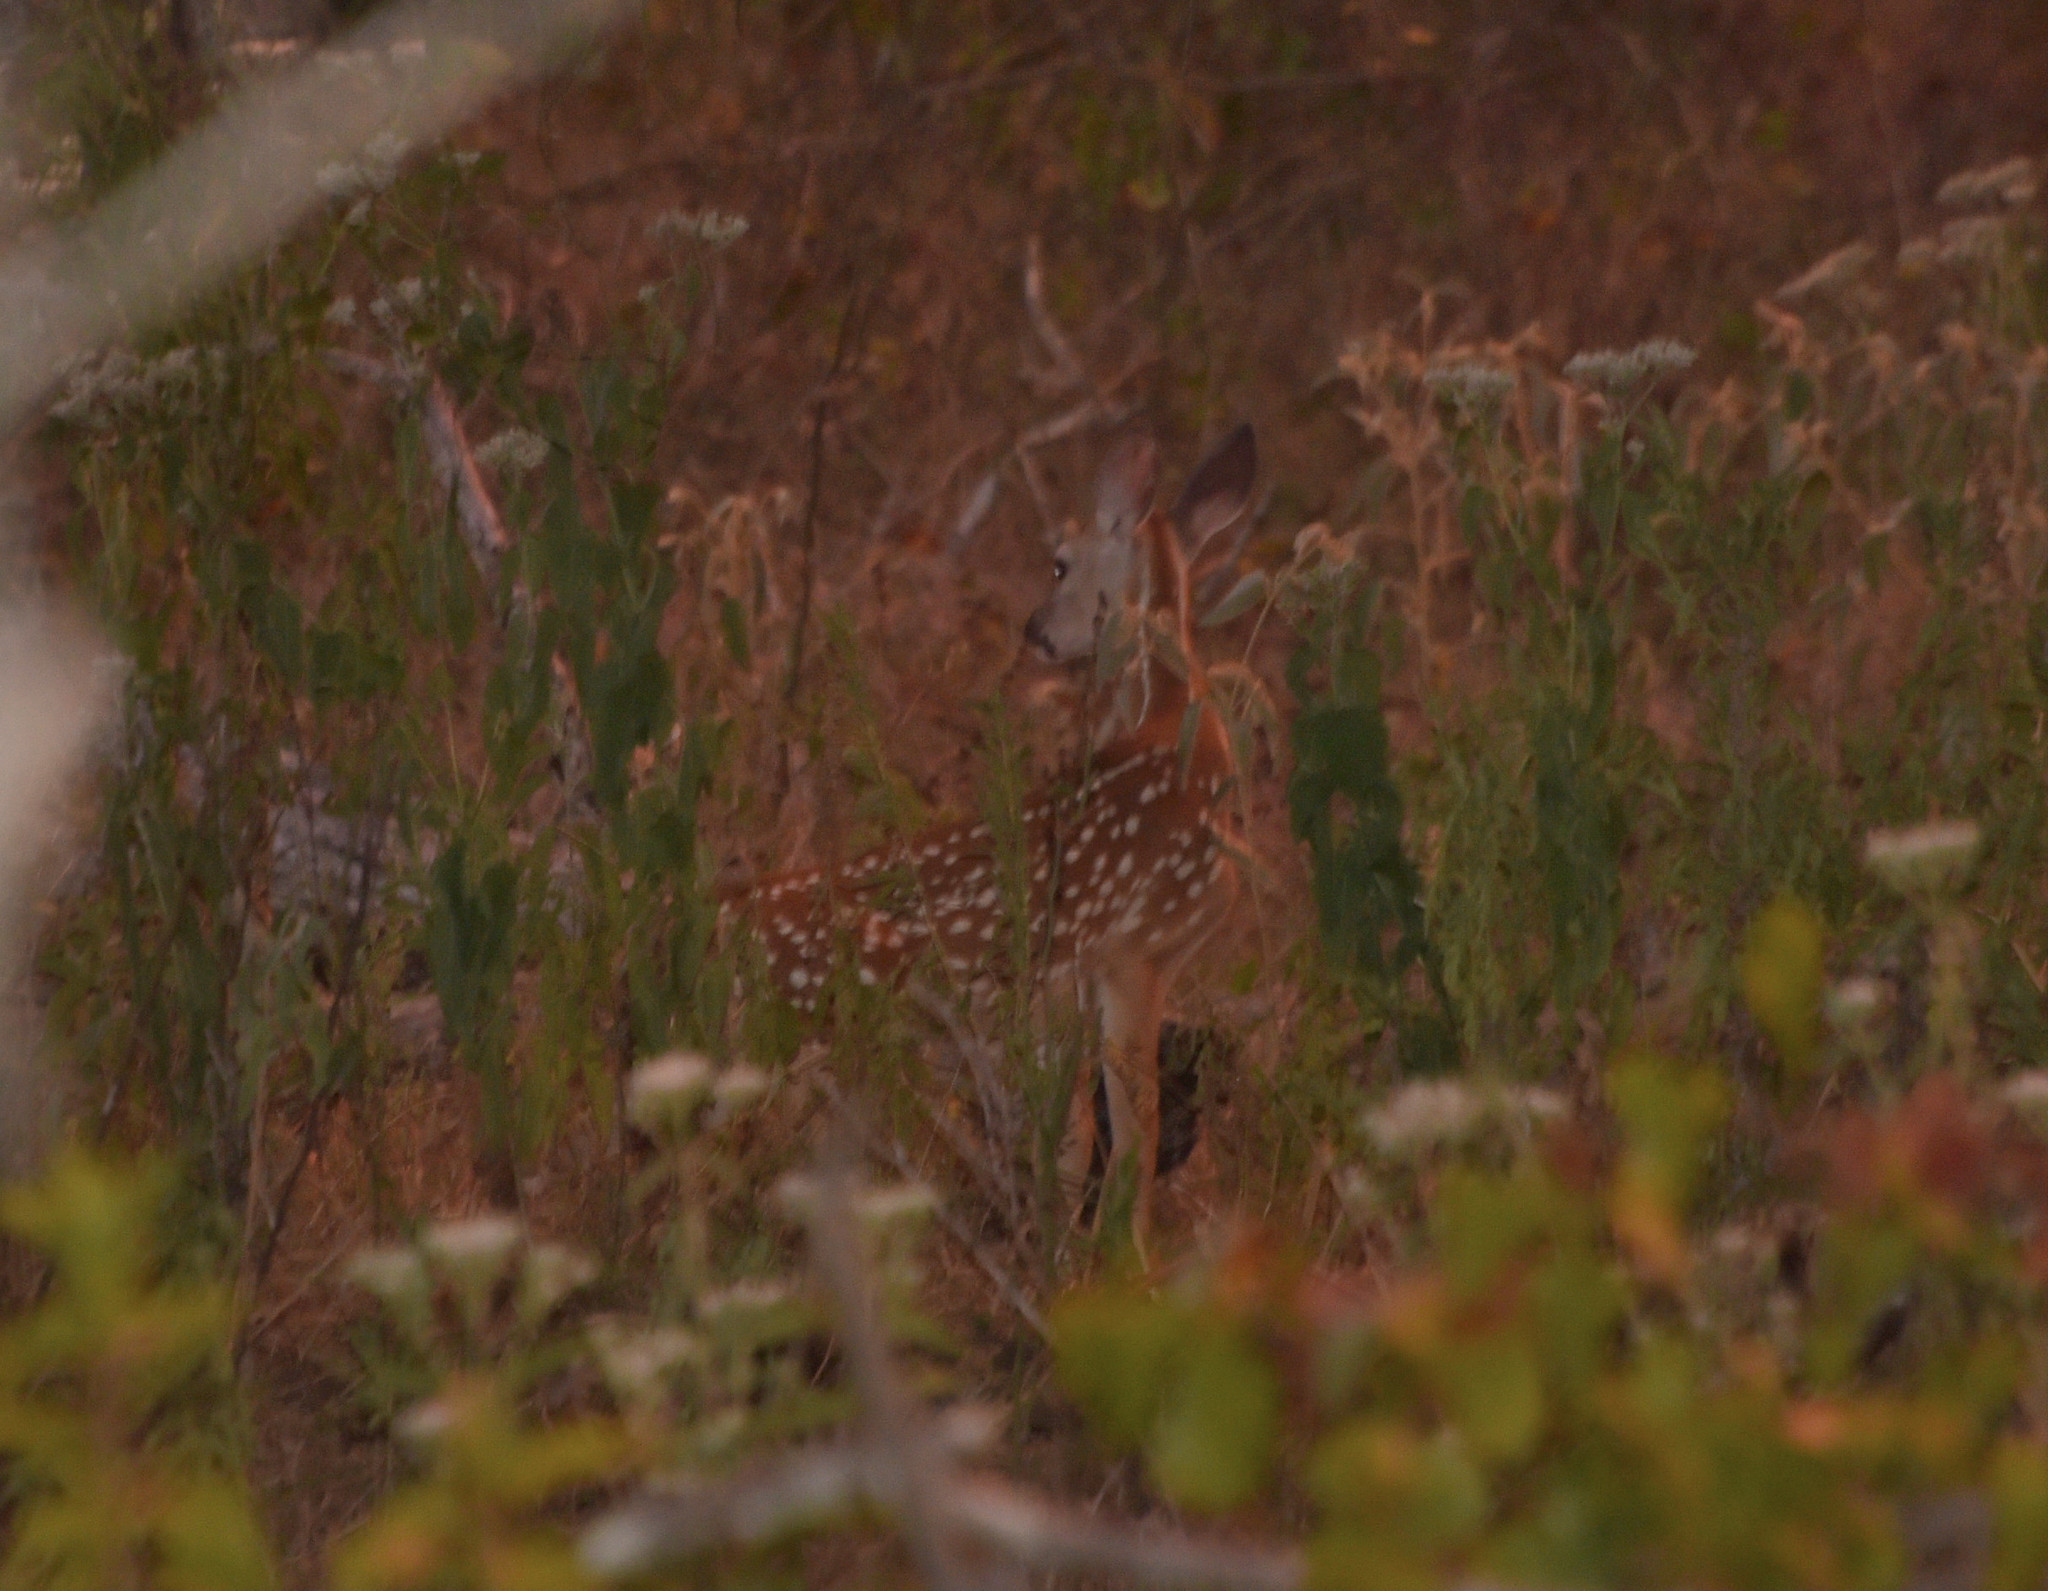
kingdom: Animalia
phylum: Chordata
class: Mammalia
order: Artiodactyla
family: Cervidae
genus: Odocoileus
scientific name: Odocoileus virginianus
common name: White-tailed deer
